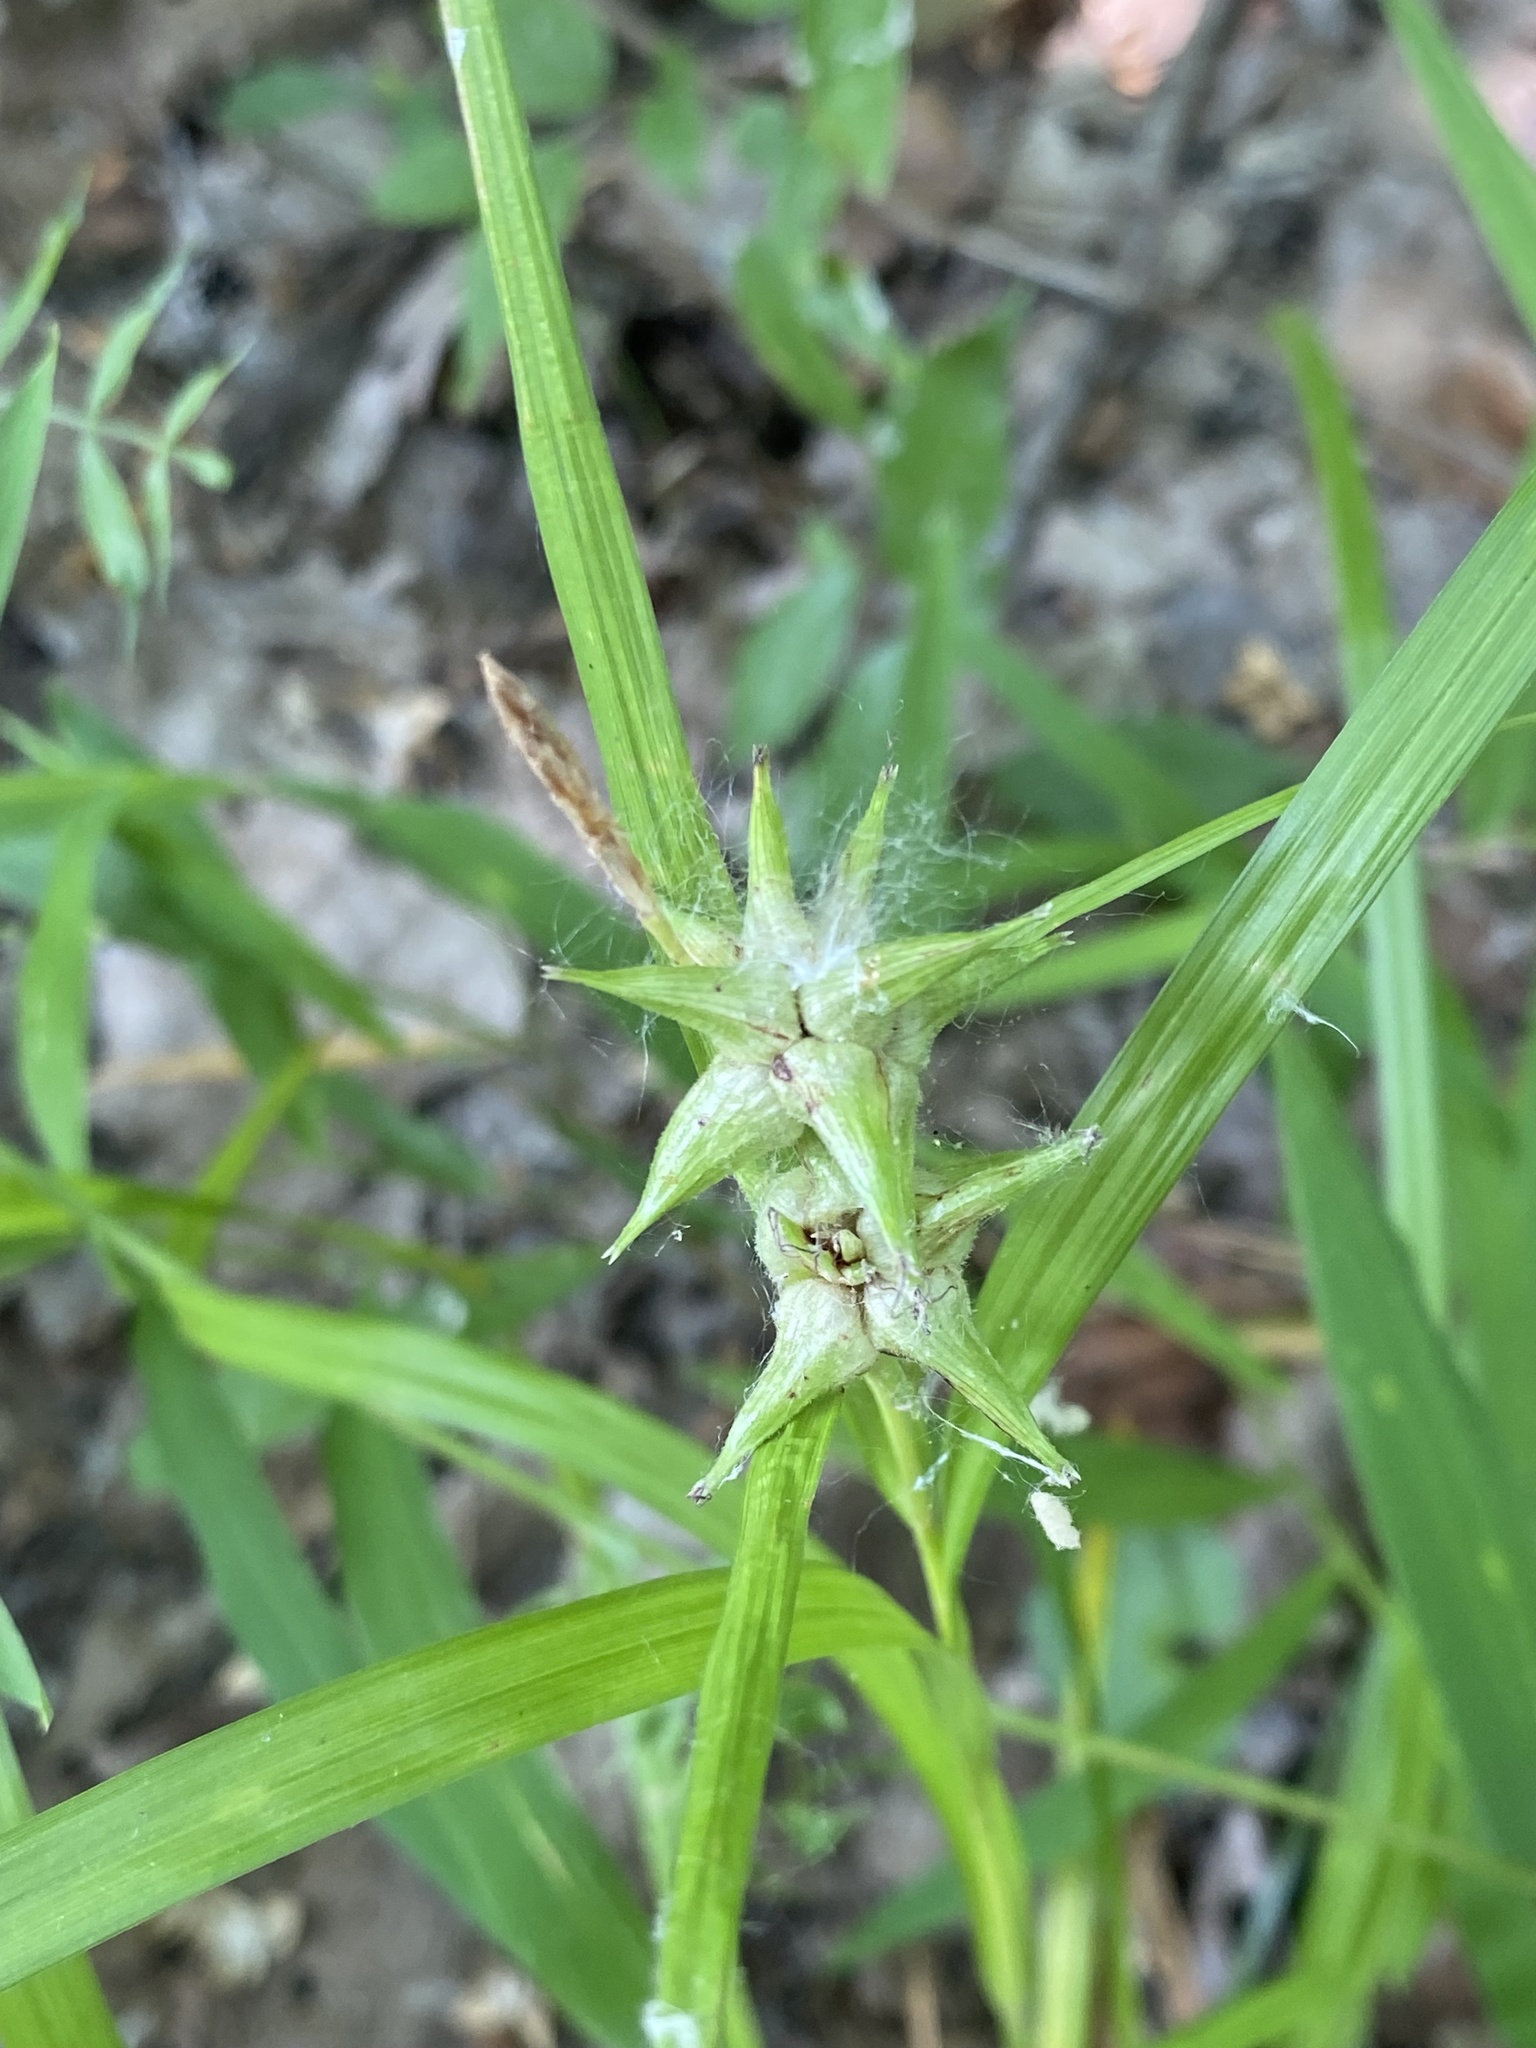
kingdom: Plantae
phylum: Tracheophyta
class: Liliopsida
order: Poales
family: Cyperaceae
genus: Carex
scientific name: Carex grayi
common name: Asa gray's sedge
